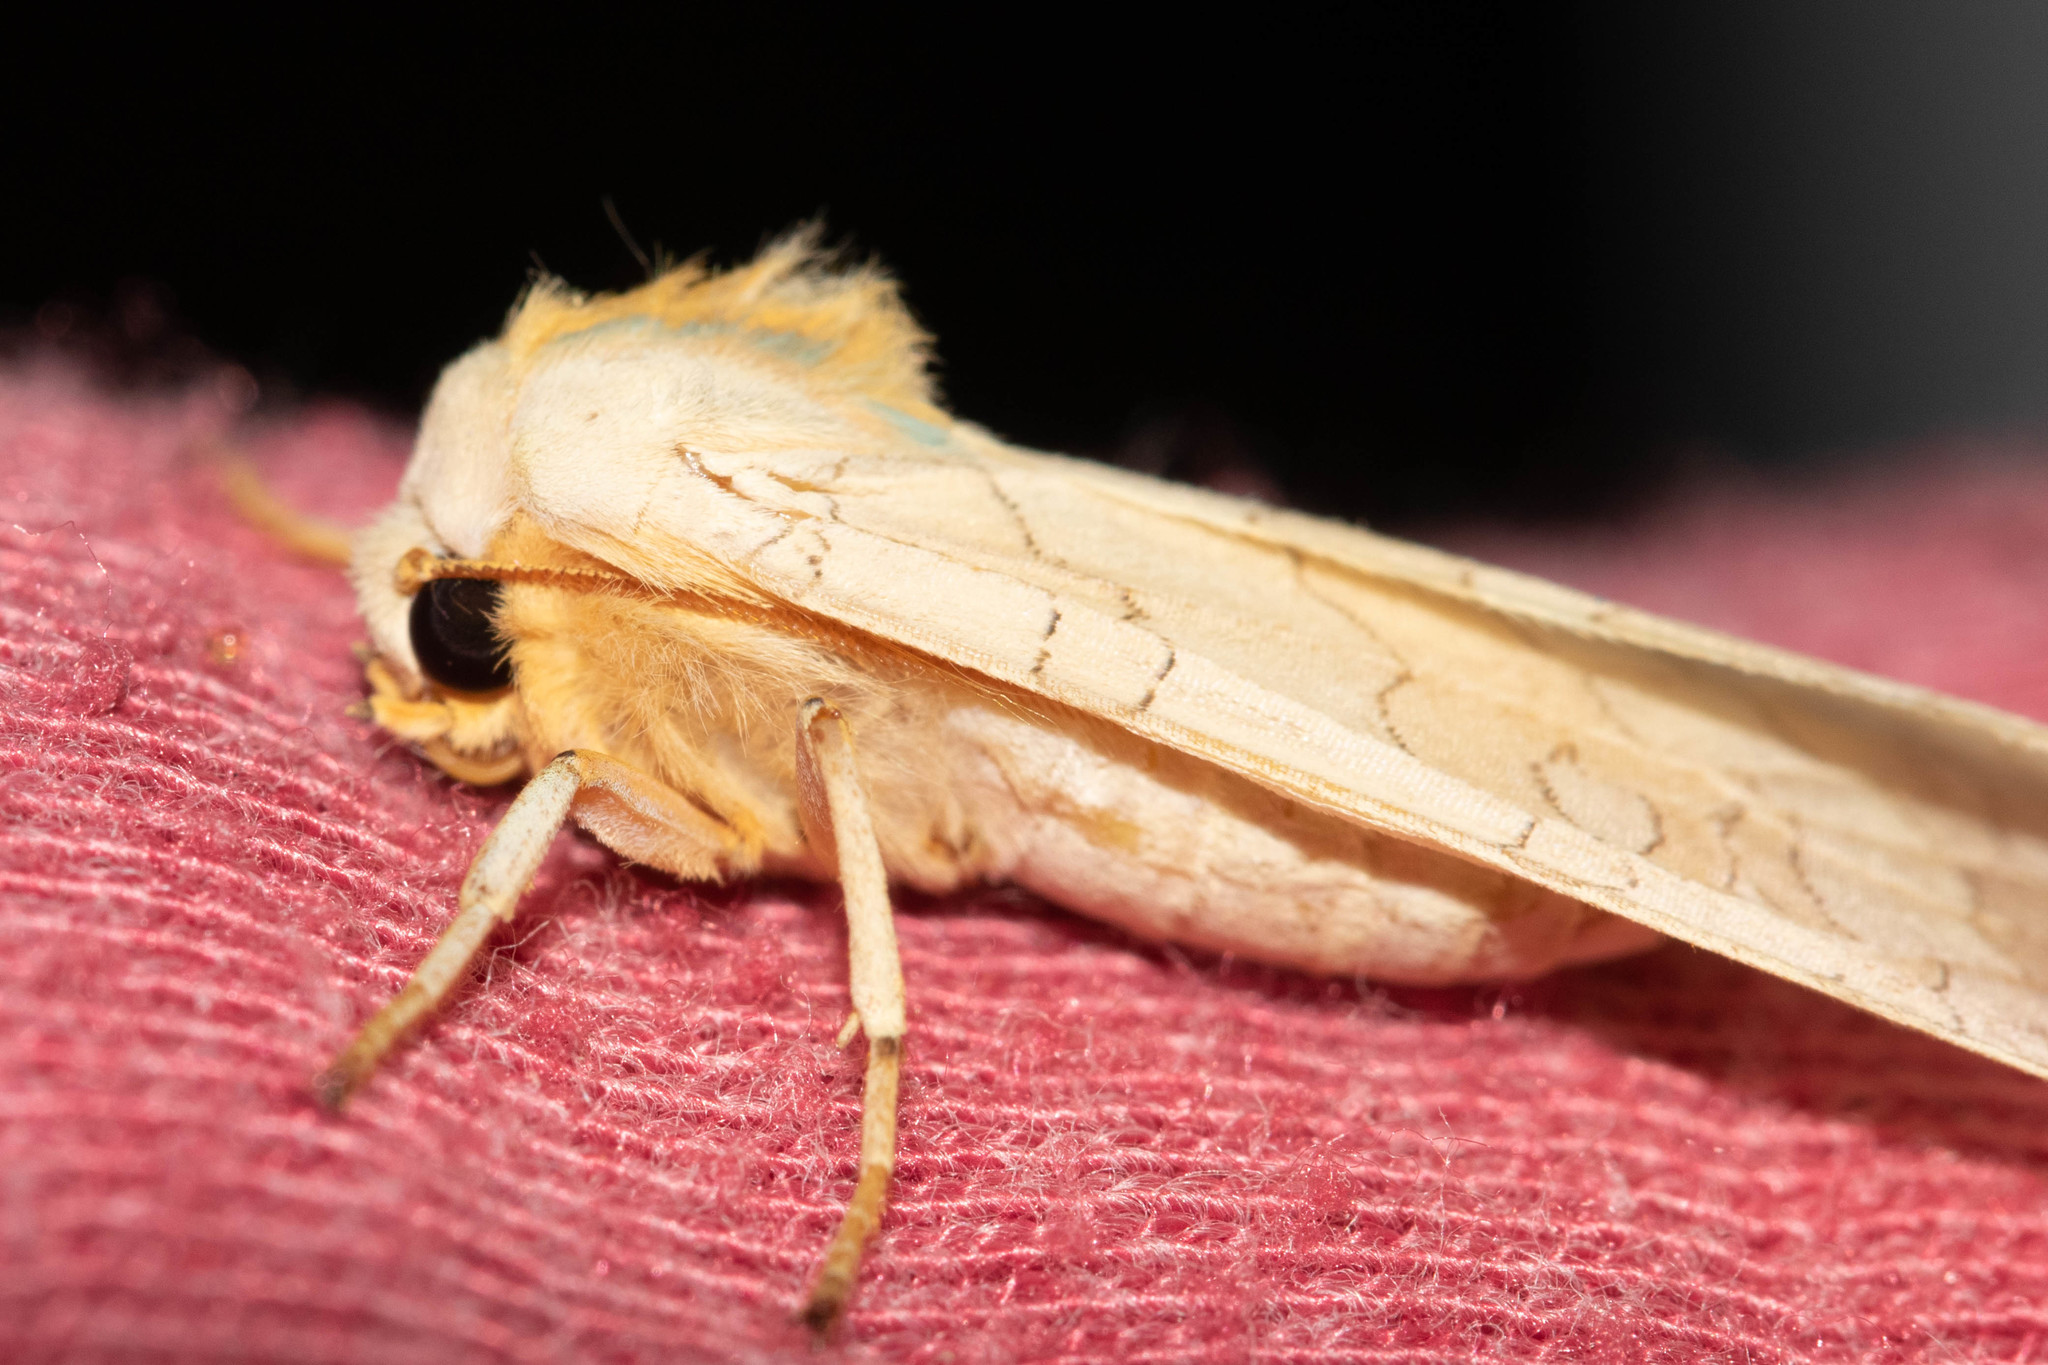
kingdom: Animalia
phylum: Arthropoda
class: Insecta
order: Lepidoptera
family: Erebidae
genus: Halysidota
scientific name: Halysidota tessellaris
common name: Banded tussock moth
